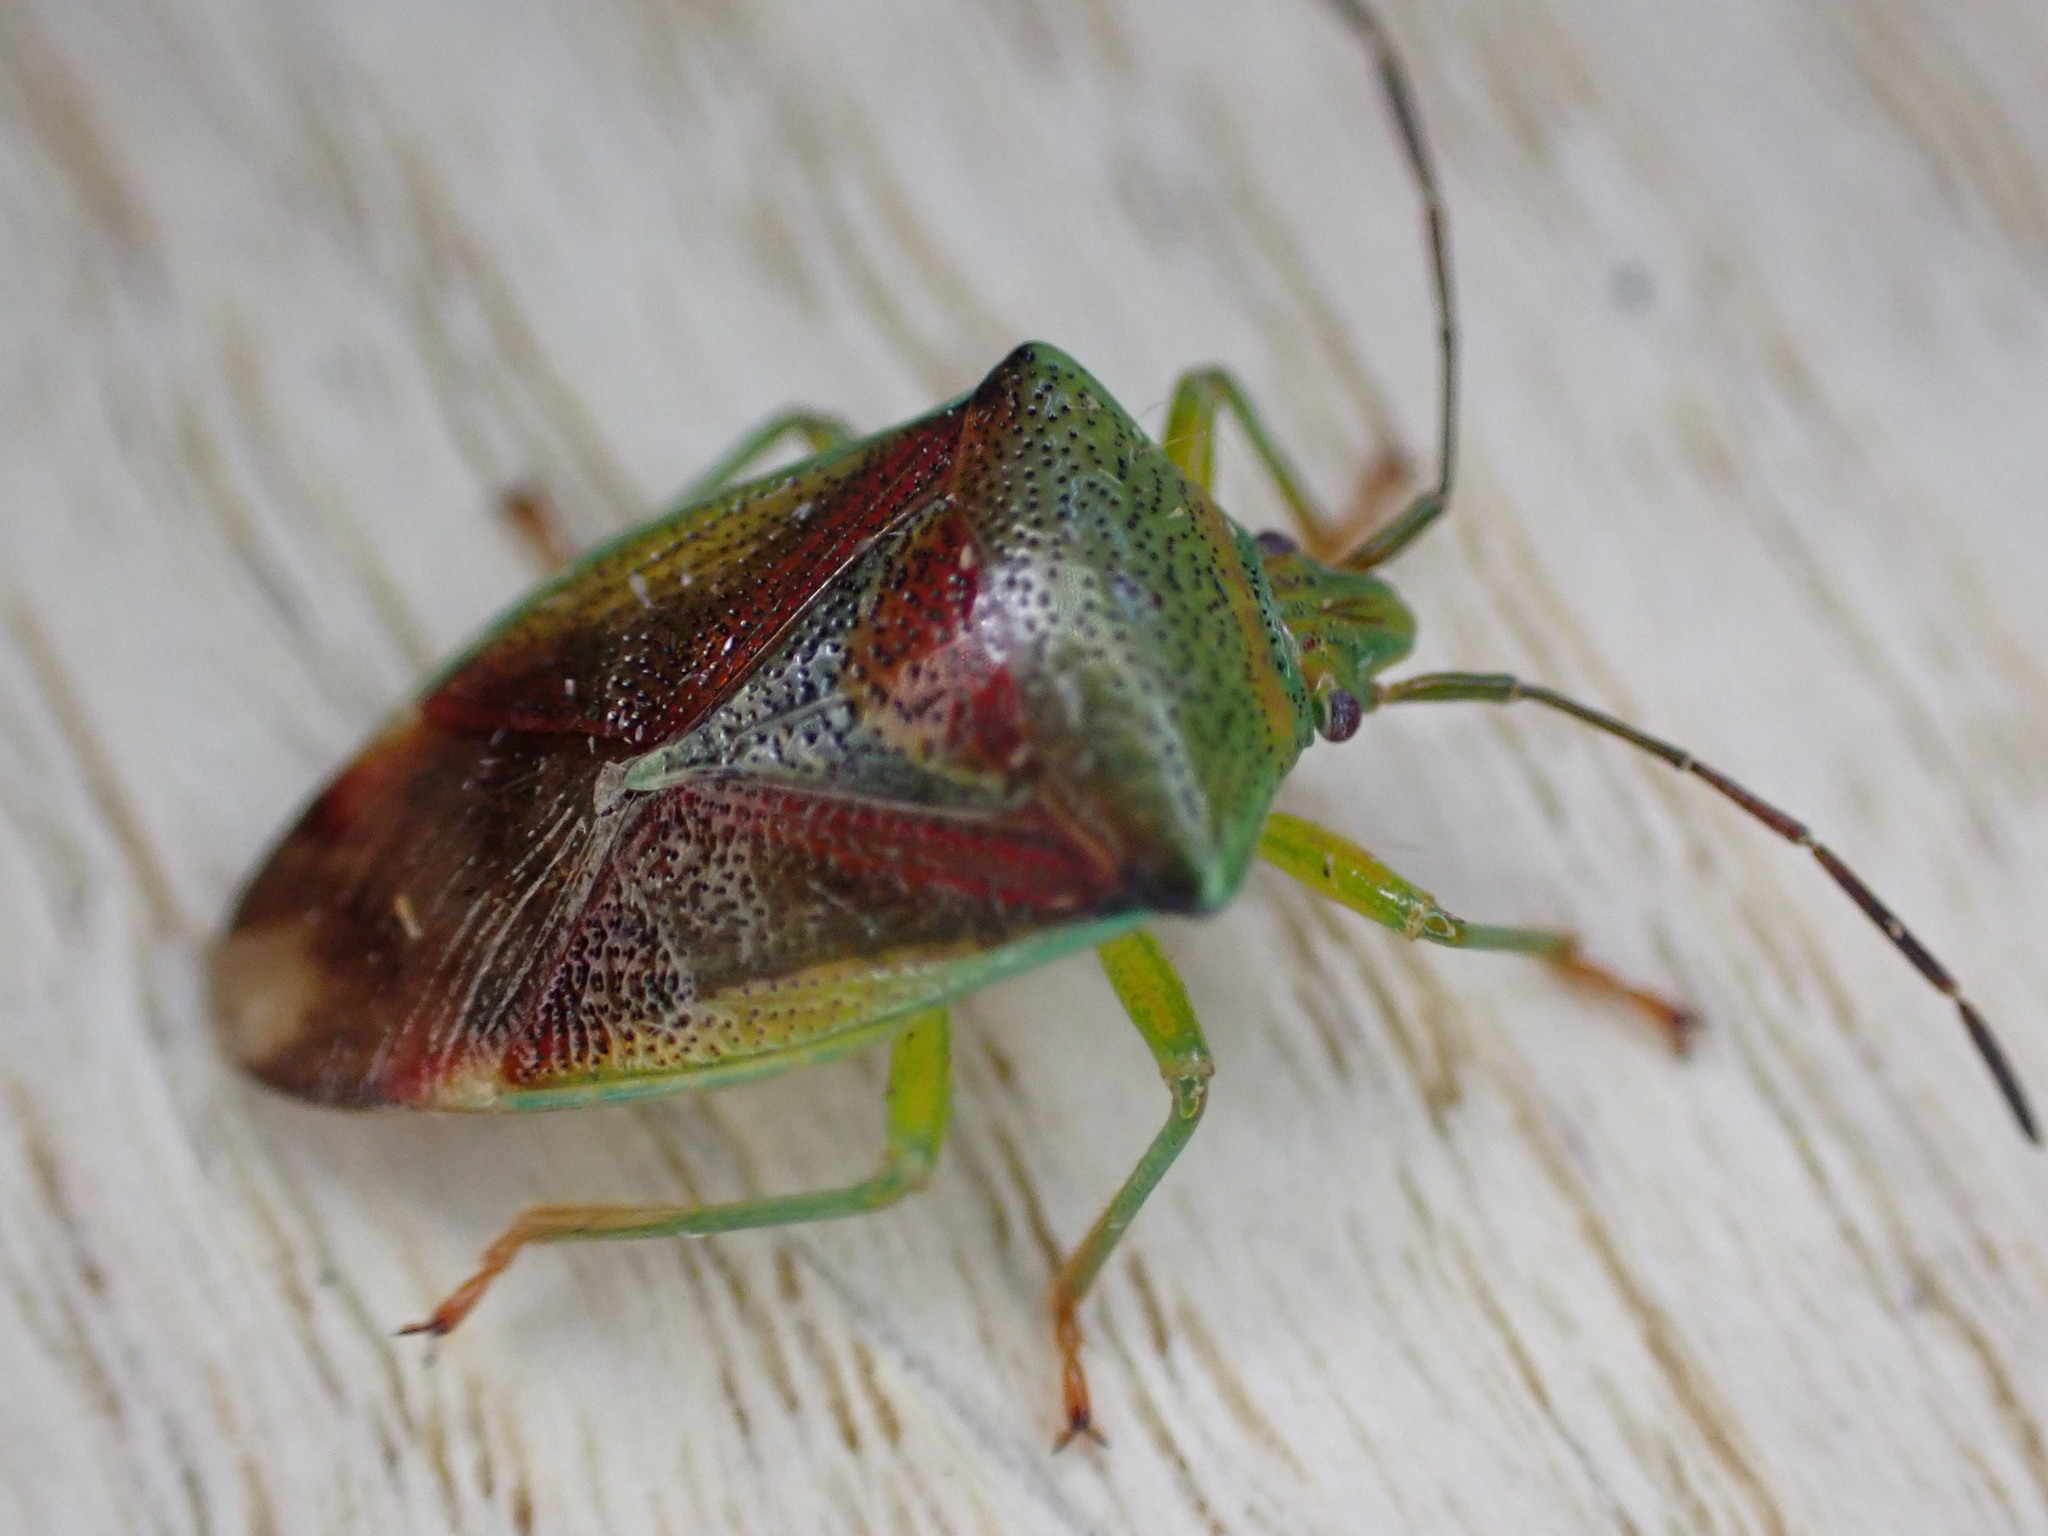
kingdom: Animalia
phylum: Arthropoda
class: Insecta
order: Hemiptera
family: Acanthosomatidae
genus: Elasmostethus
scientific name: Elasmostethus interstinctus
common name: Birch shieldbug
